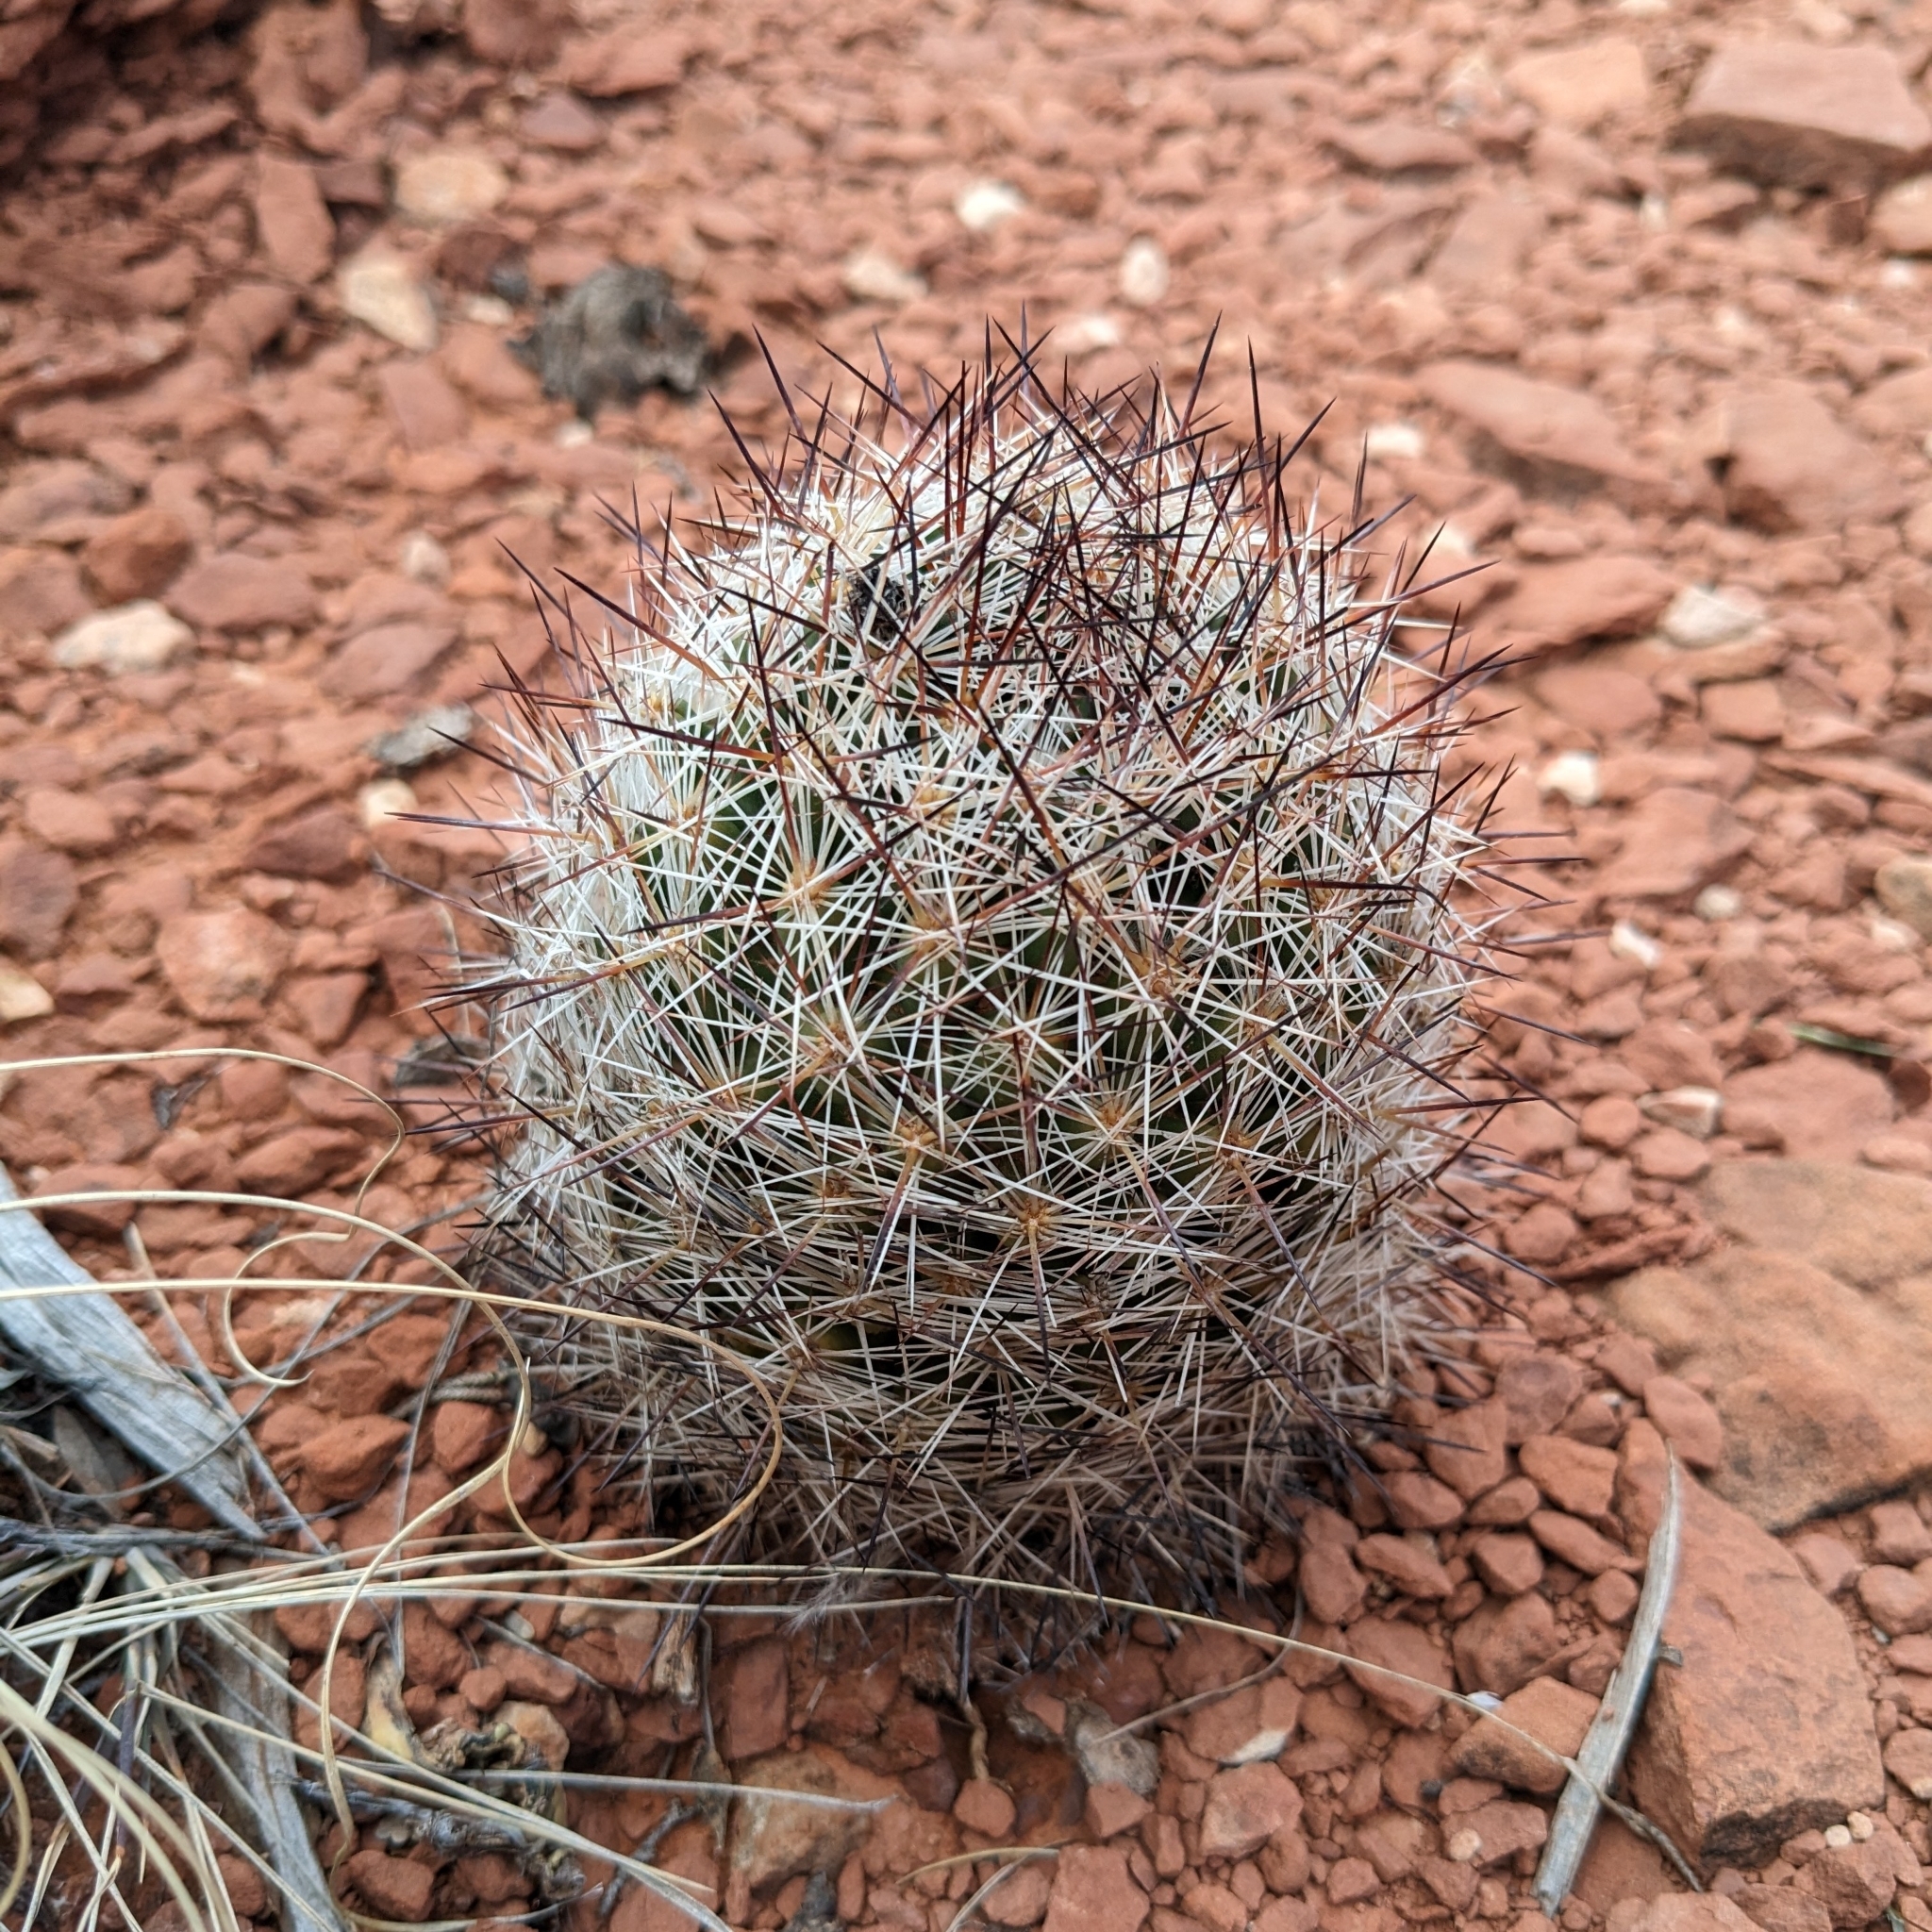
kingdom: Plantae
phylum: Tracheophyta
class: Magnoliopsida
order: Caryophyllales
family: Cactaceae
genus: Pelecyphora
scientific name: Pelecyphora vivipara
